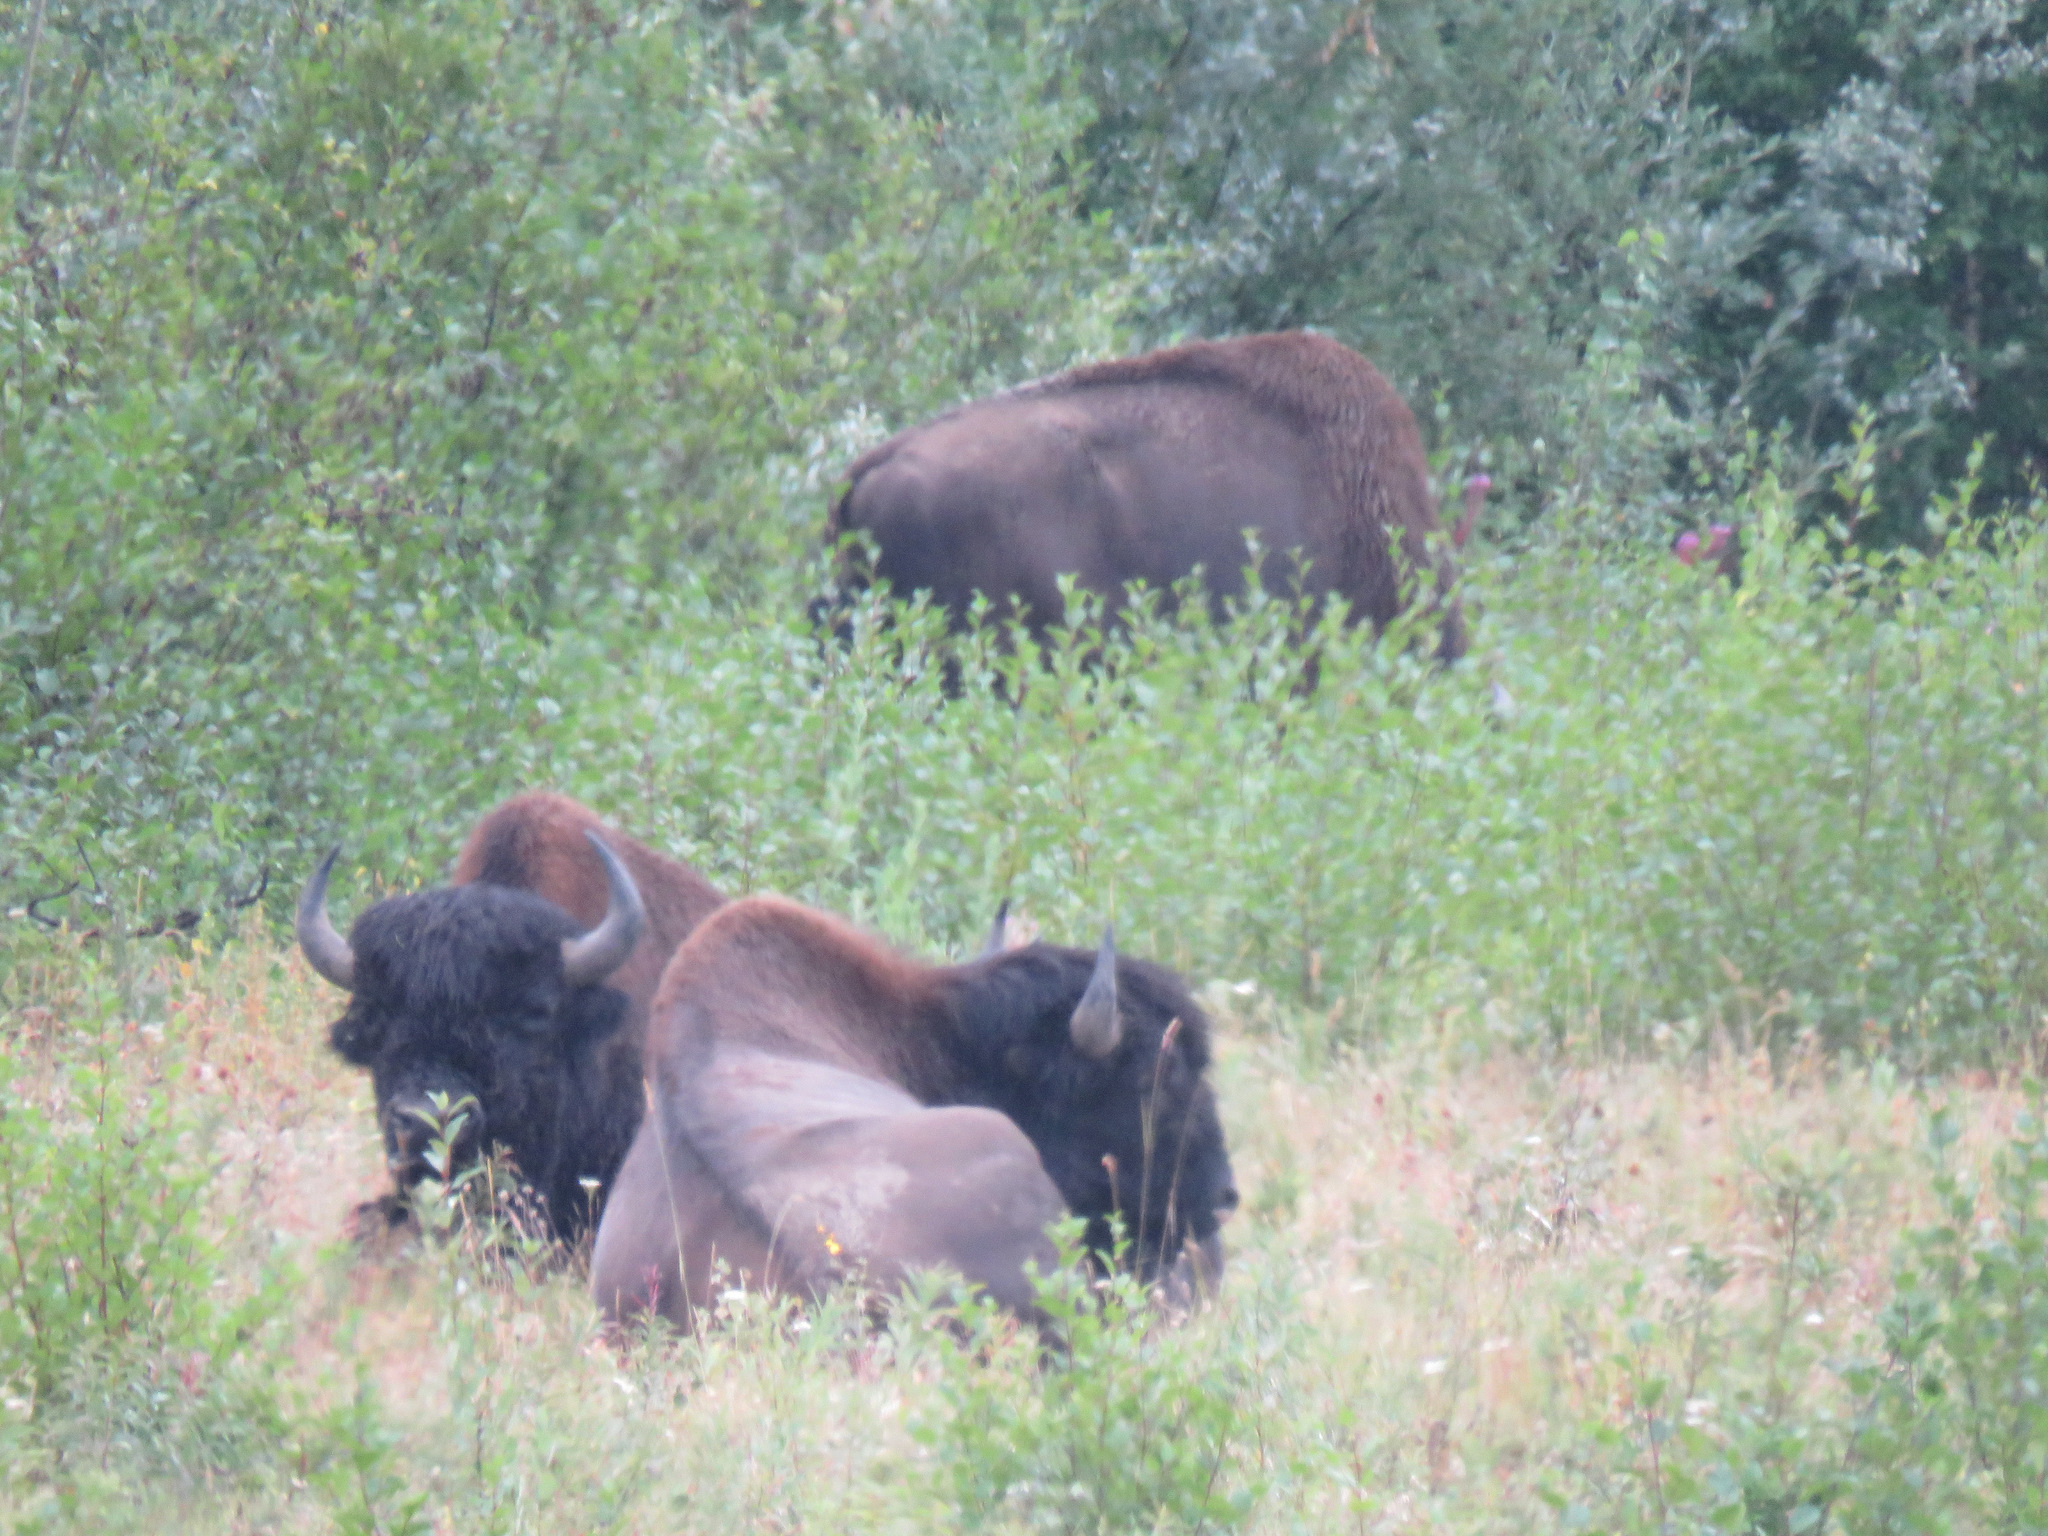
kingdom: Animalia
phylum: Chordata
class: Mammalia
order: Artiodactyla
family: Bovidae
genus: Bison
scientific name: Bison bison
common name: American bison
